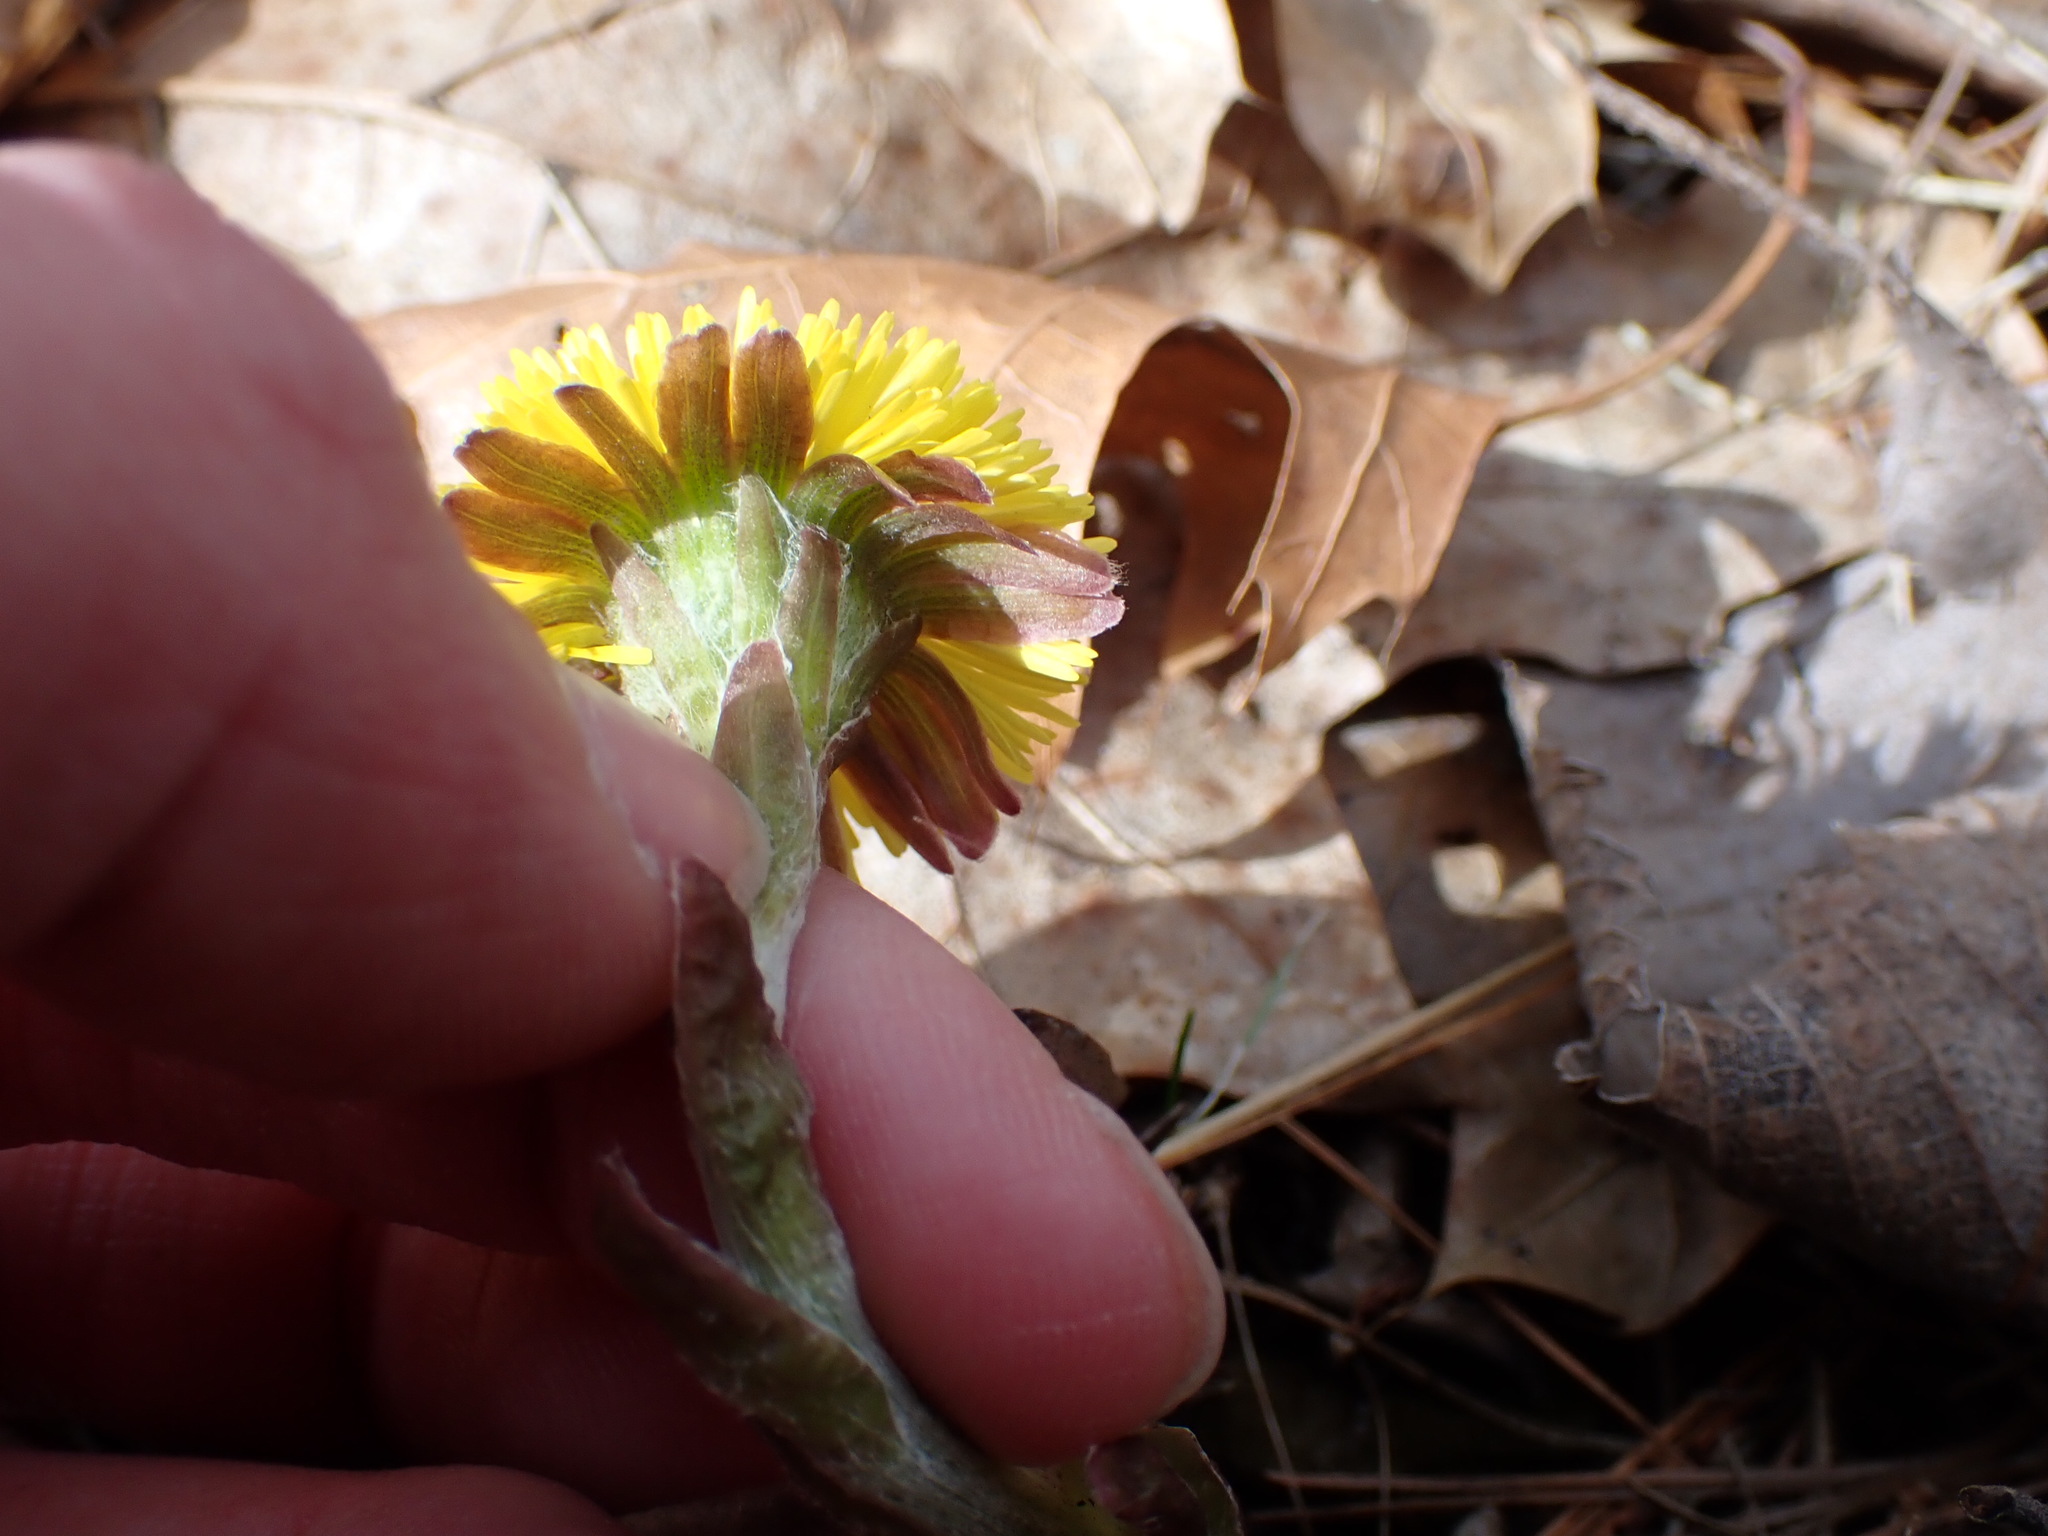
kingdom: Plantae
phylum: Tracheophyta
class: Magnoliopsida
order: Asterales
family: Asteraceae
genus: Tussilago
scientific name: Tussilago farfara
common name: Coltsfoot
